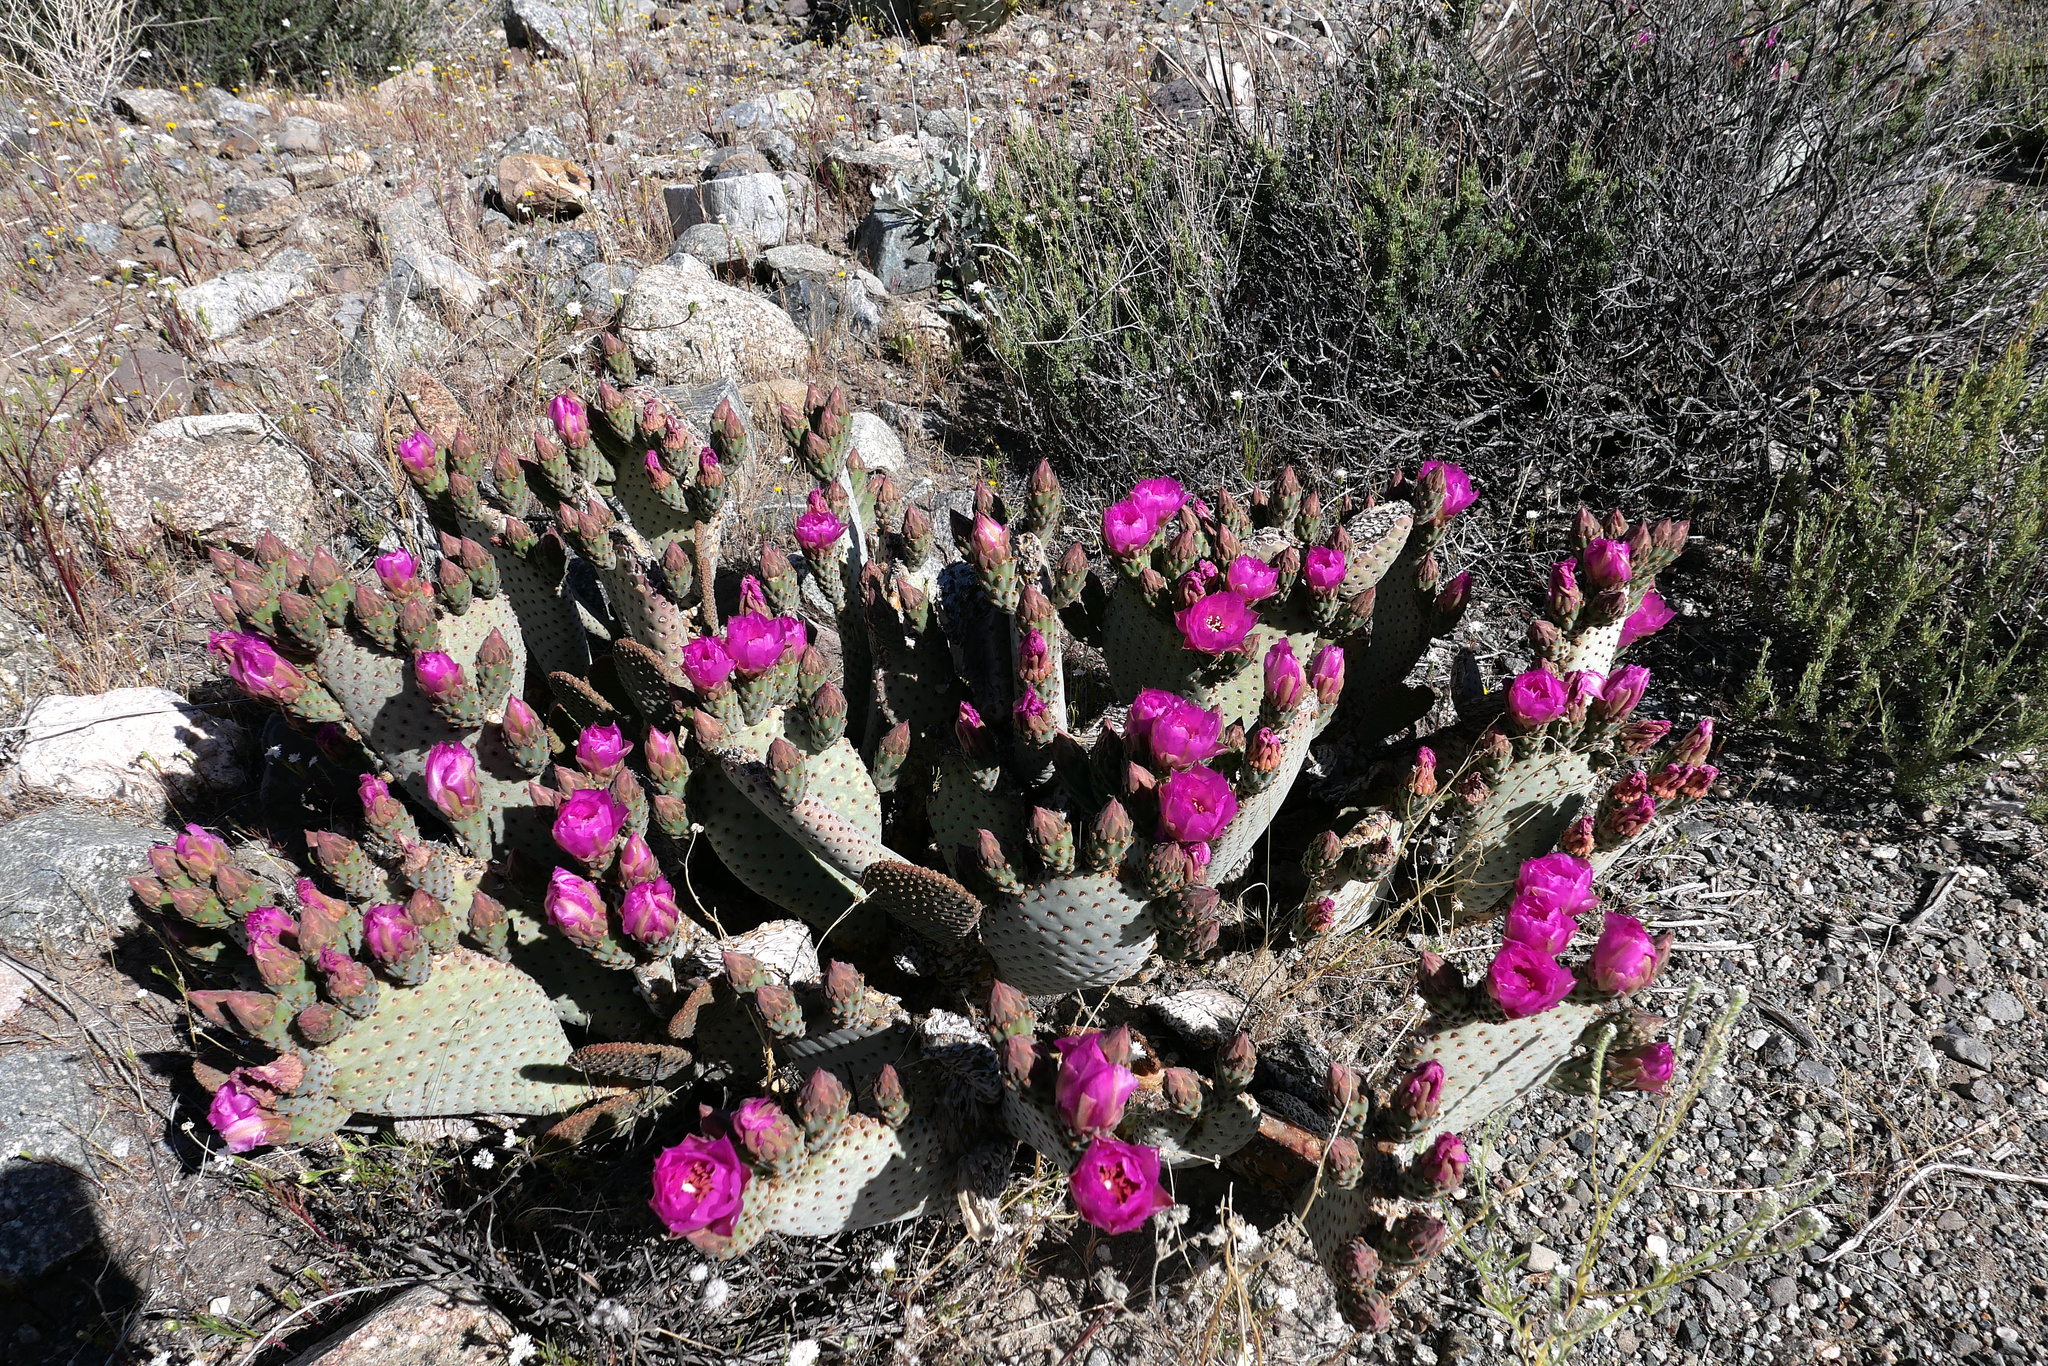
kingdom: Plantae
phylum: Tracheophyta
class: Magnoliopsida
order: Caryophyllales
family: Cactaceae
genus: Opuntia
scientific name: Opuntia basilaris
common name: Beavertail prickly-pear
